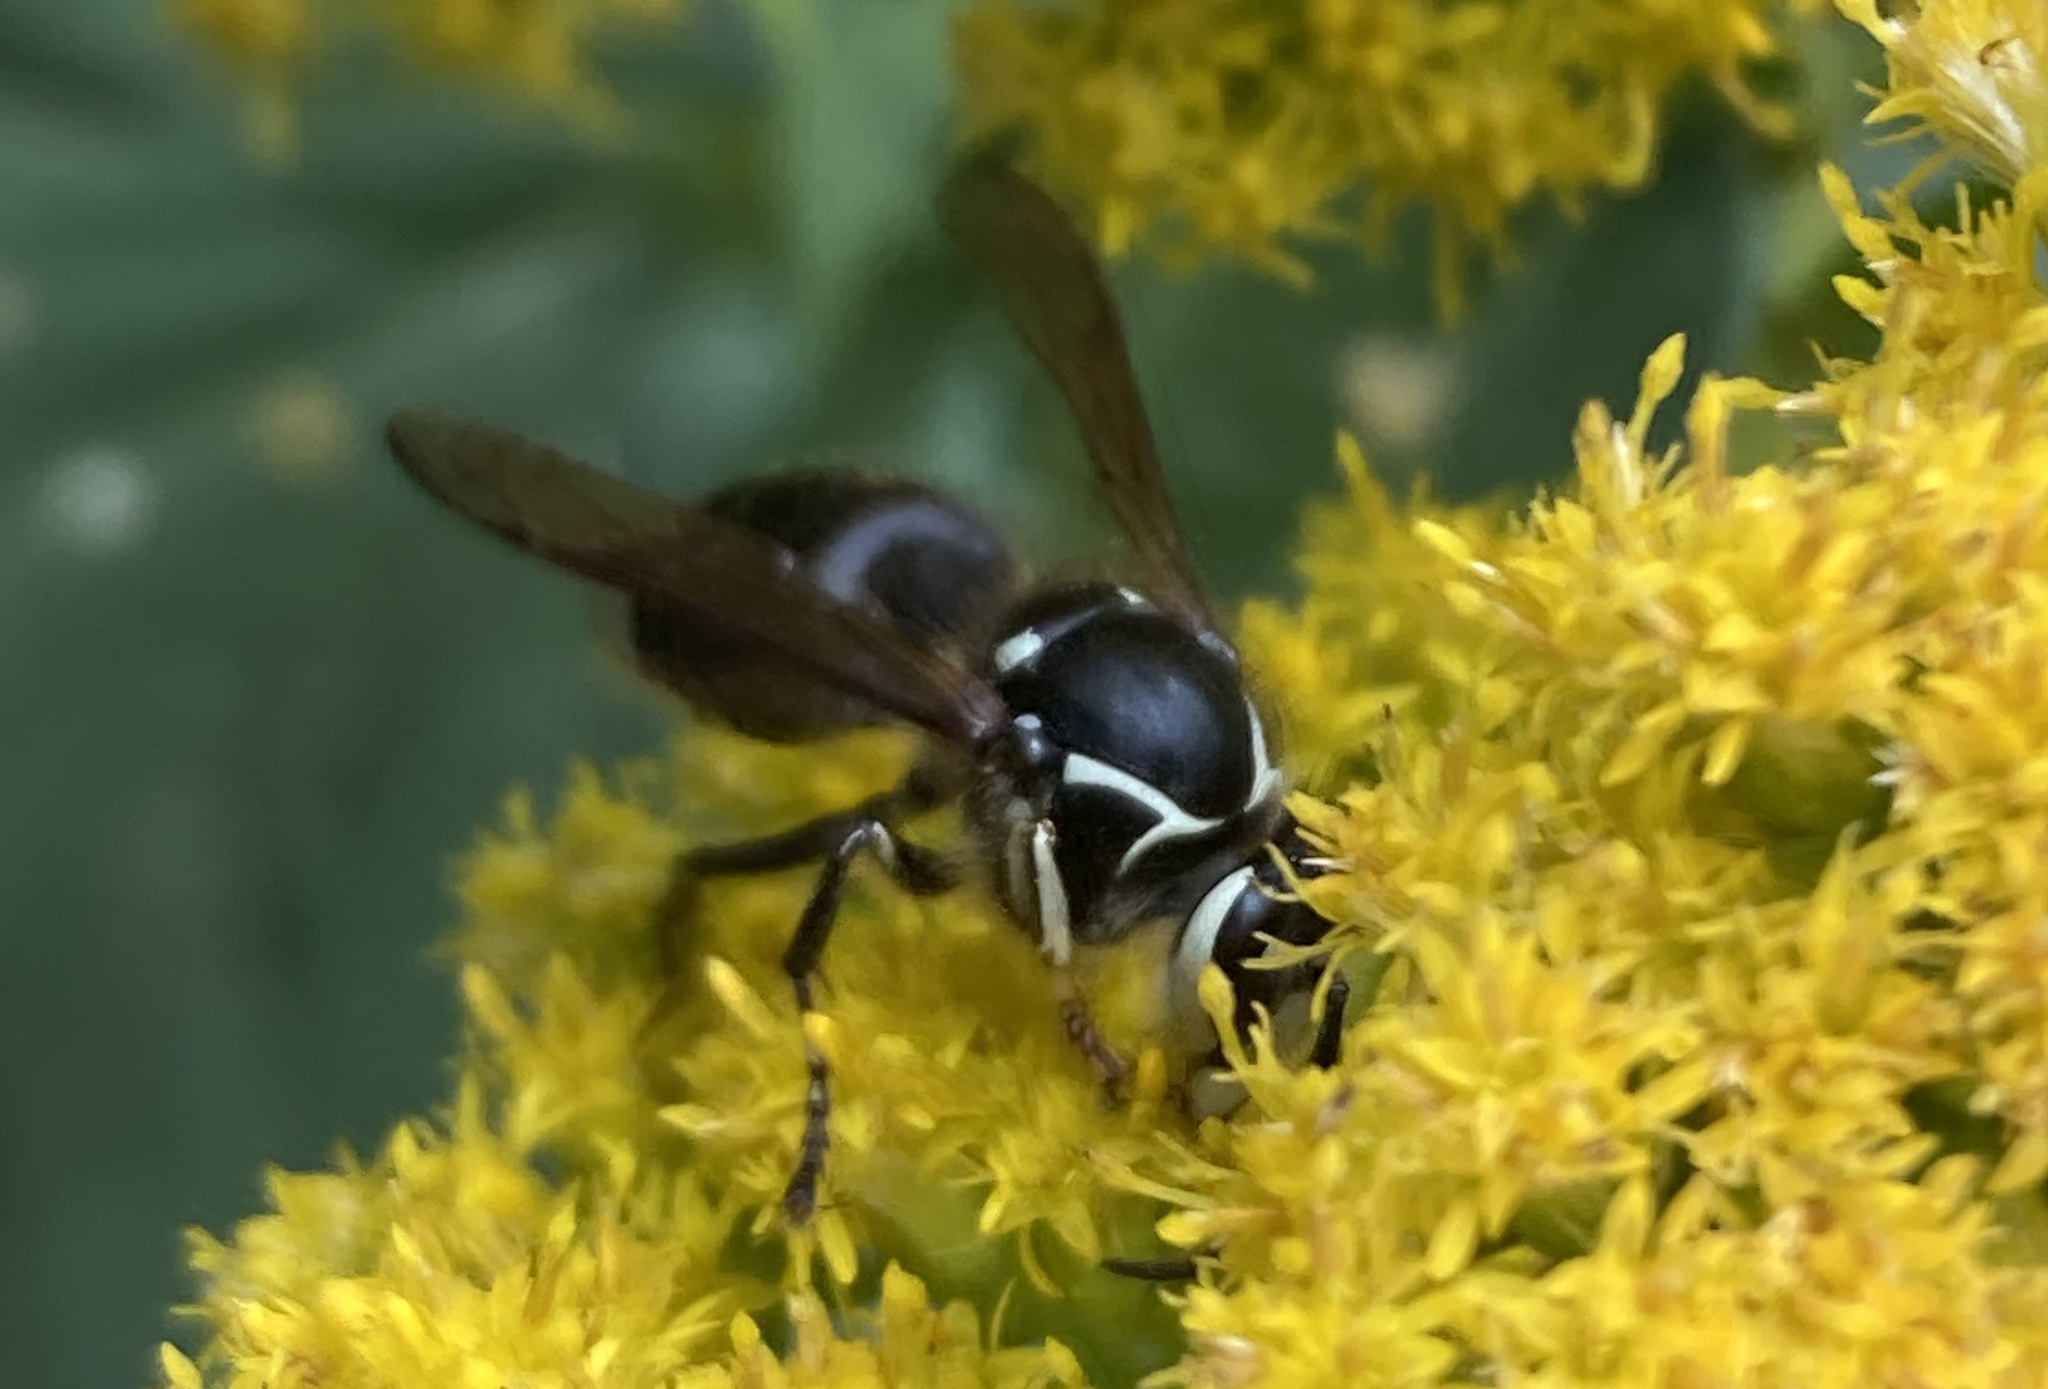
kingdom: Animalia
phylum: Arthropoda
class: Insecta
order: Hymenoptera
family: Vespidae
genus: Dolichovespula
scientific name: Dolichovespula maculata
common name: Bald-faced hornet
